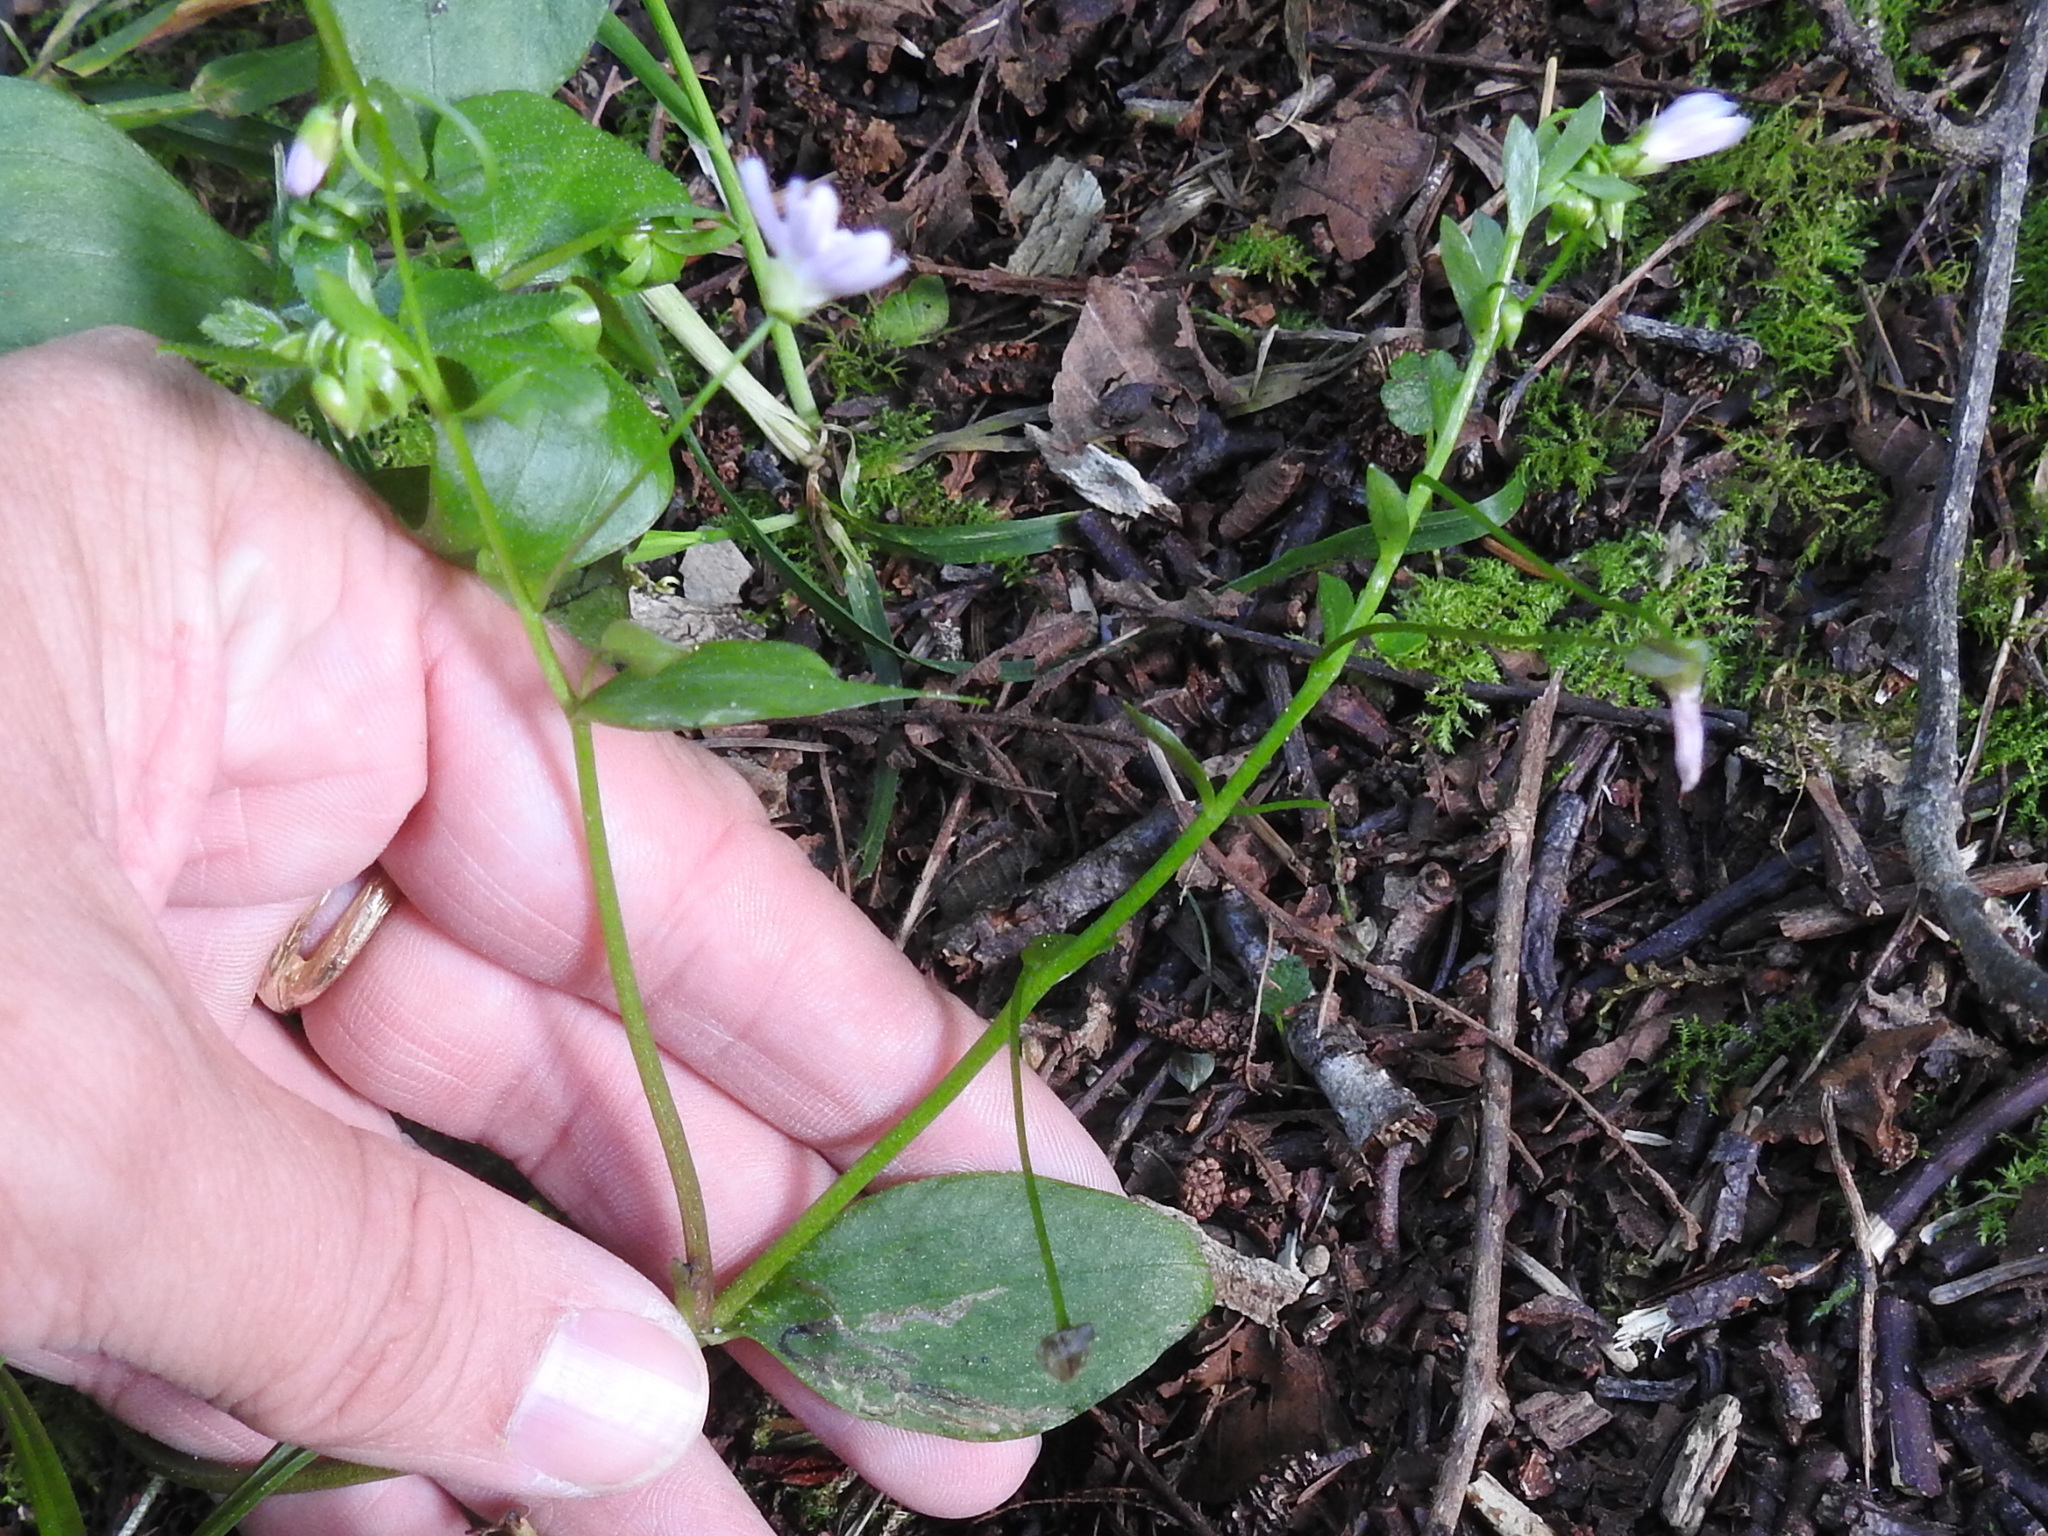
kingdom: Plantae
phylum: Tracheophyta
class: Magnoliopsida
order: Caryophyllales
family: Montiaceae
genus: Claytonia
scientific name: Claytonia sibirica
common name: Pink purslane
